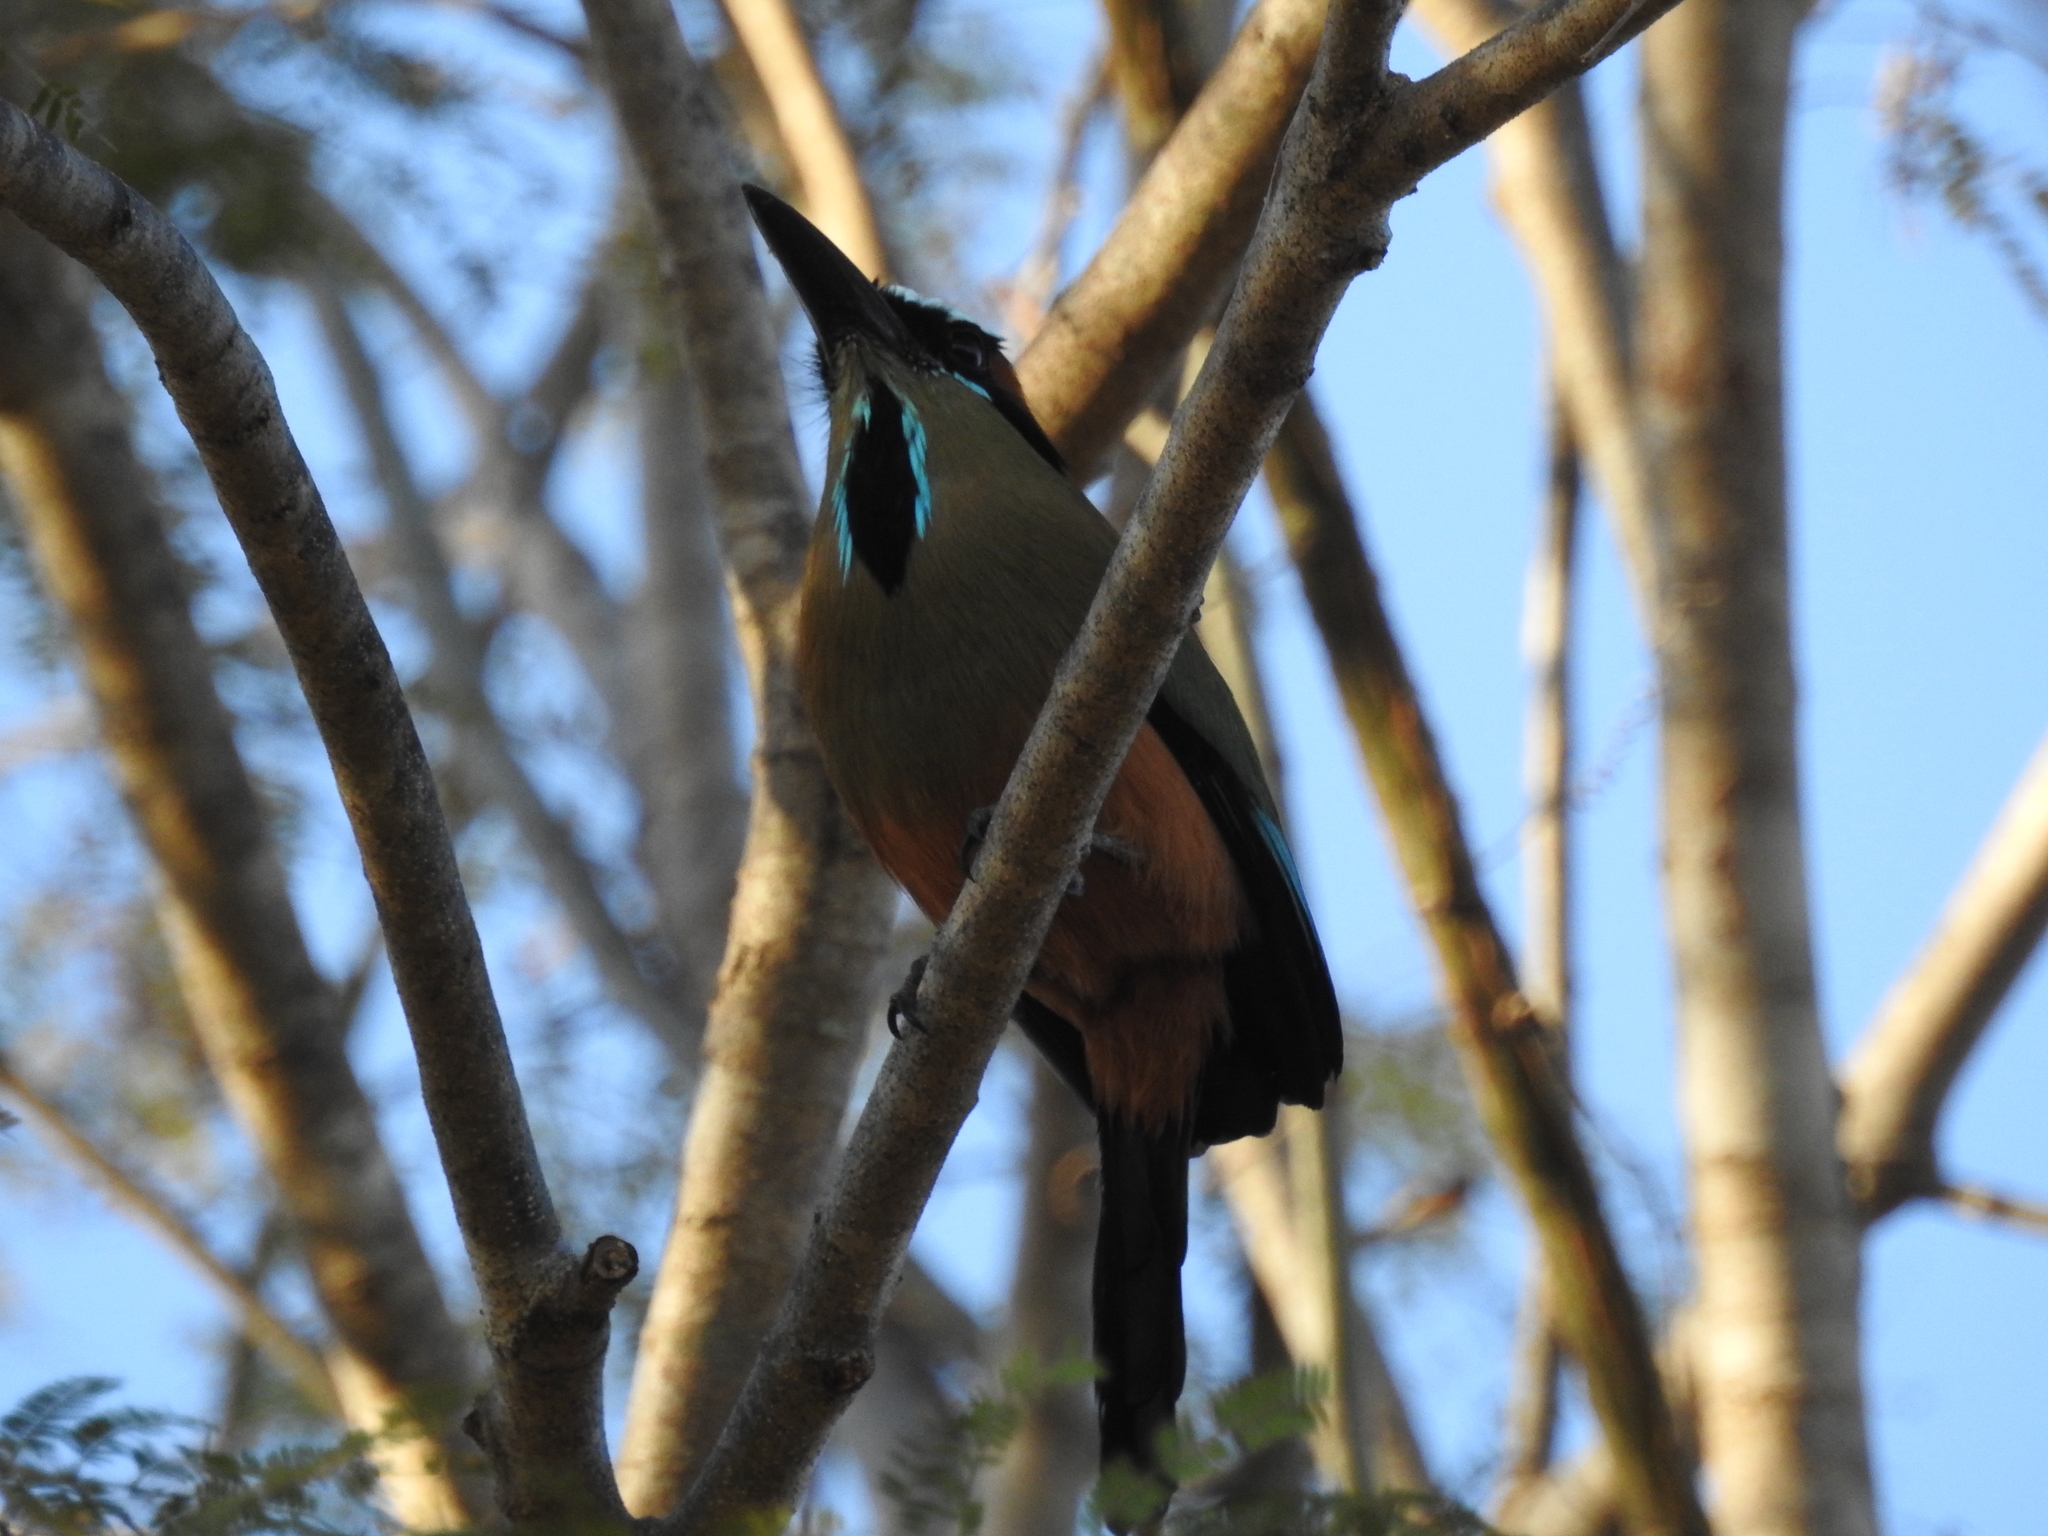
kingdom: Animalia
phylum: Chordata
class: Aves
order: Coraciiformes
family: Momotidae
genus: Eumomota
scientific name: Eumomota superciliosa
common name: Turquoise-browed motmot
